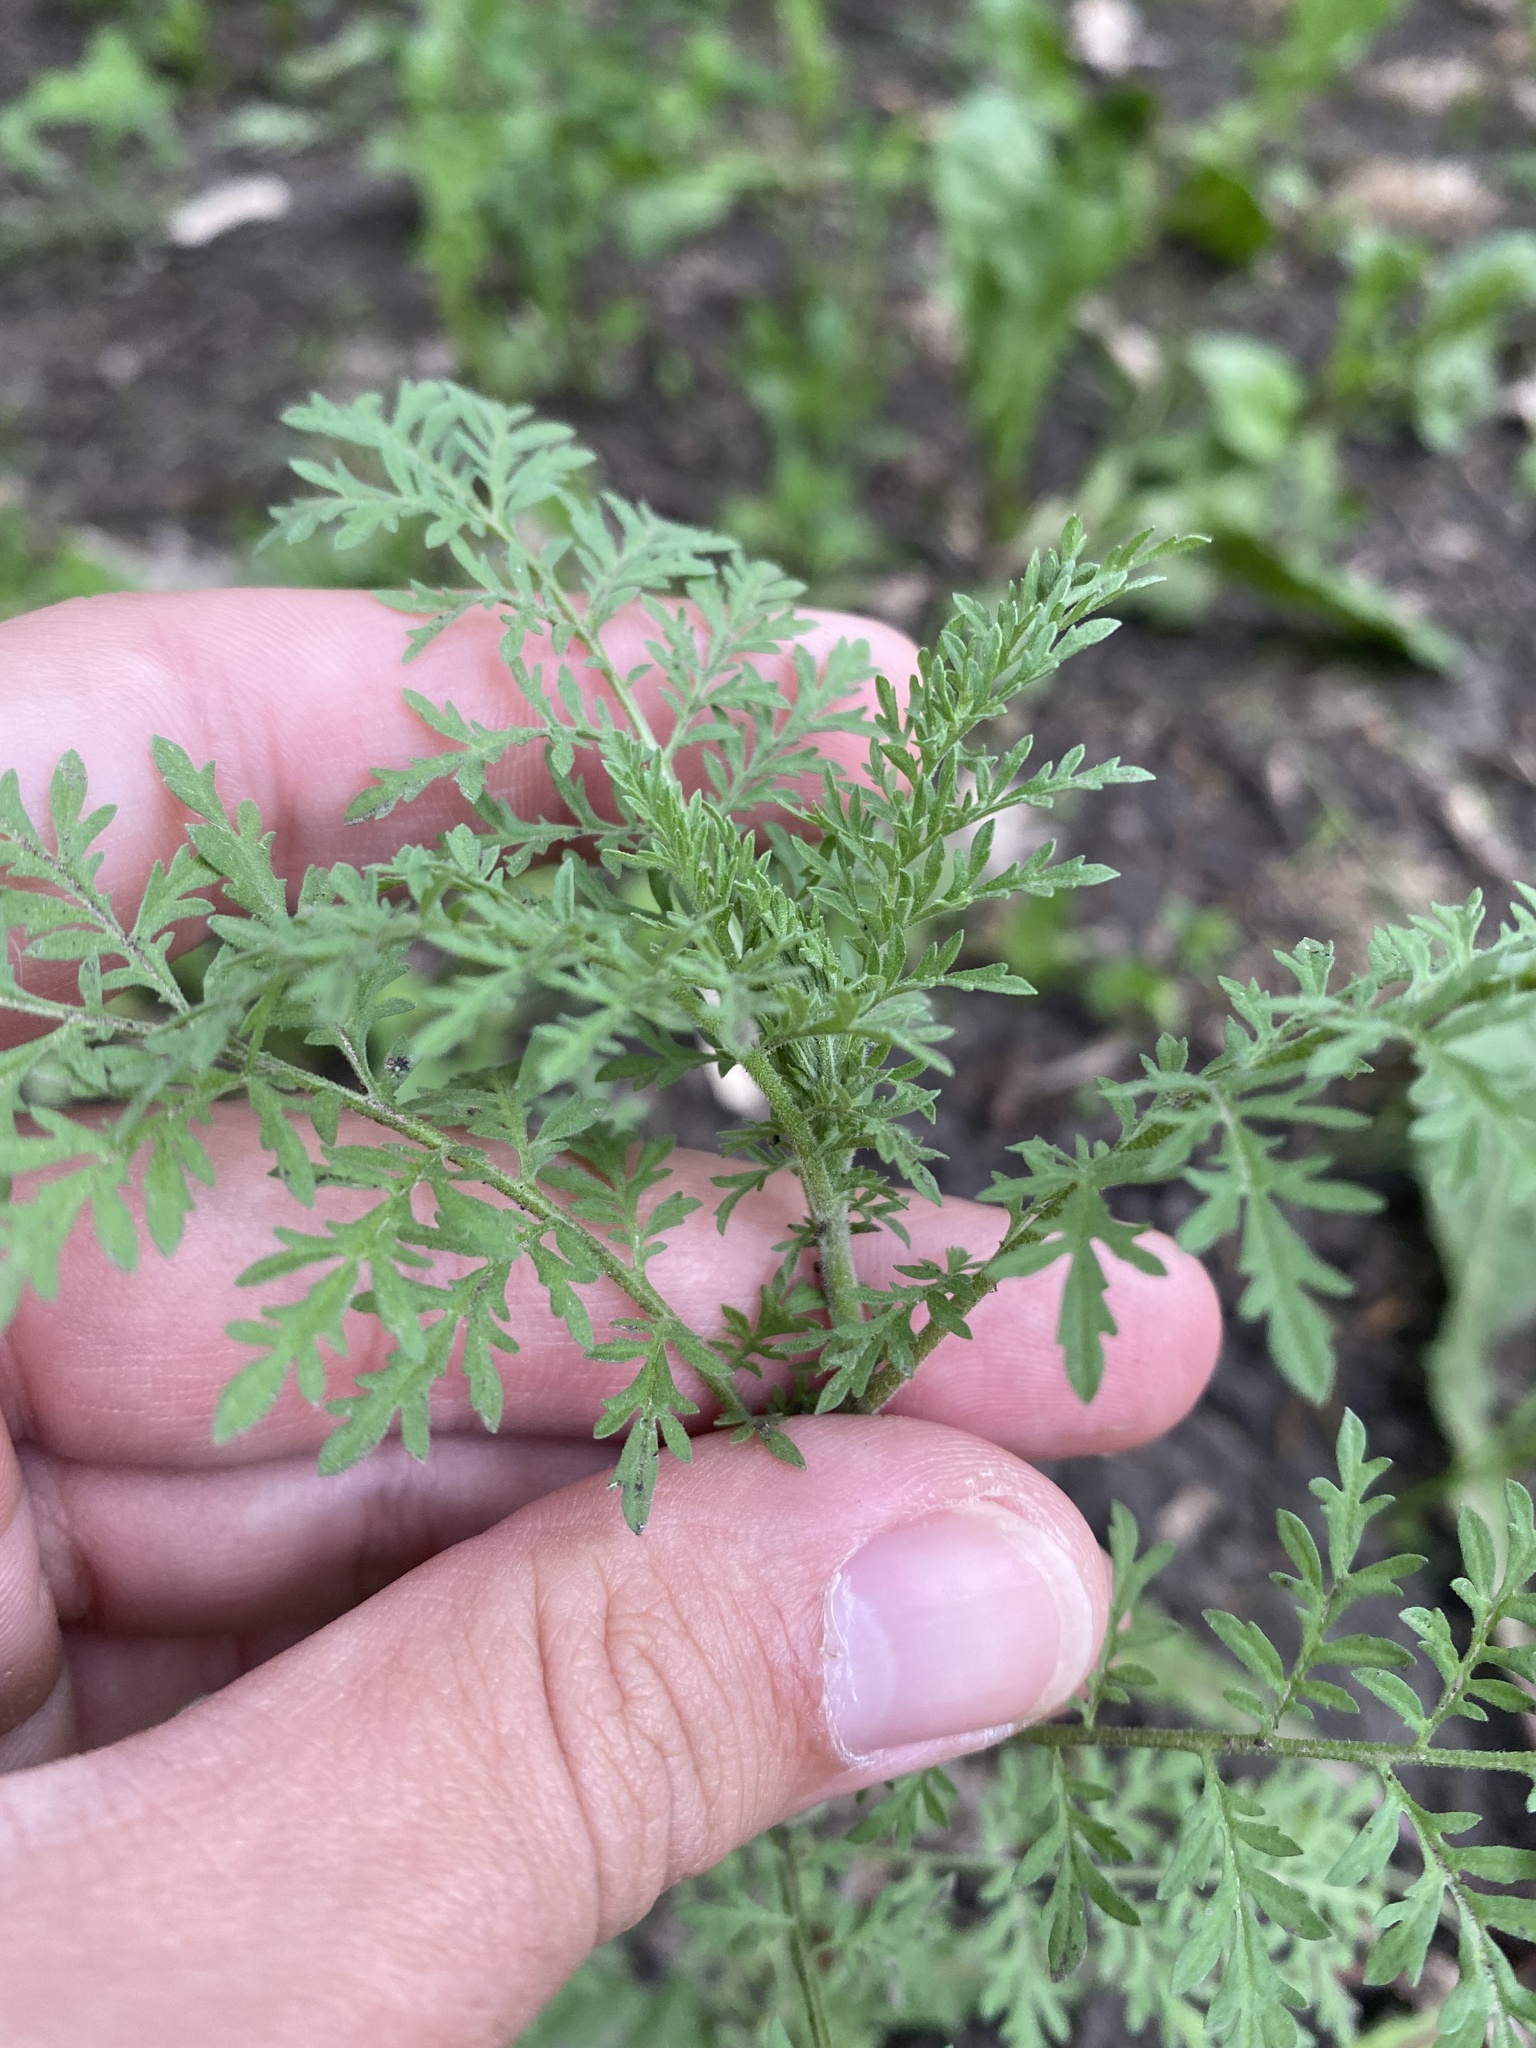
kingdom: Plantae
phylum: Tracheophyta
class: Magnoliopsida
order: Brassicales
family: Brassicaceae
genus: Descurainia
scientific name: Descurainia sophia
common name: Flixweed
